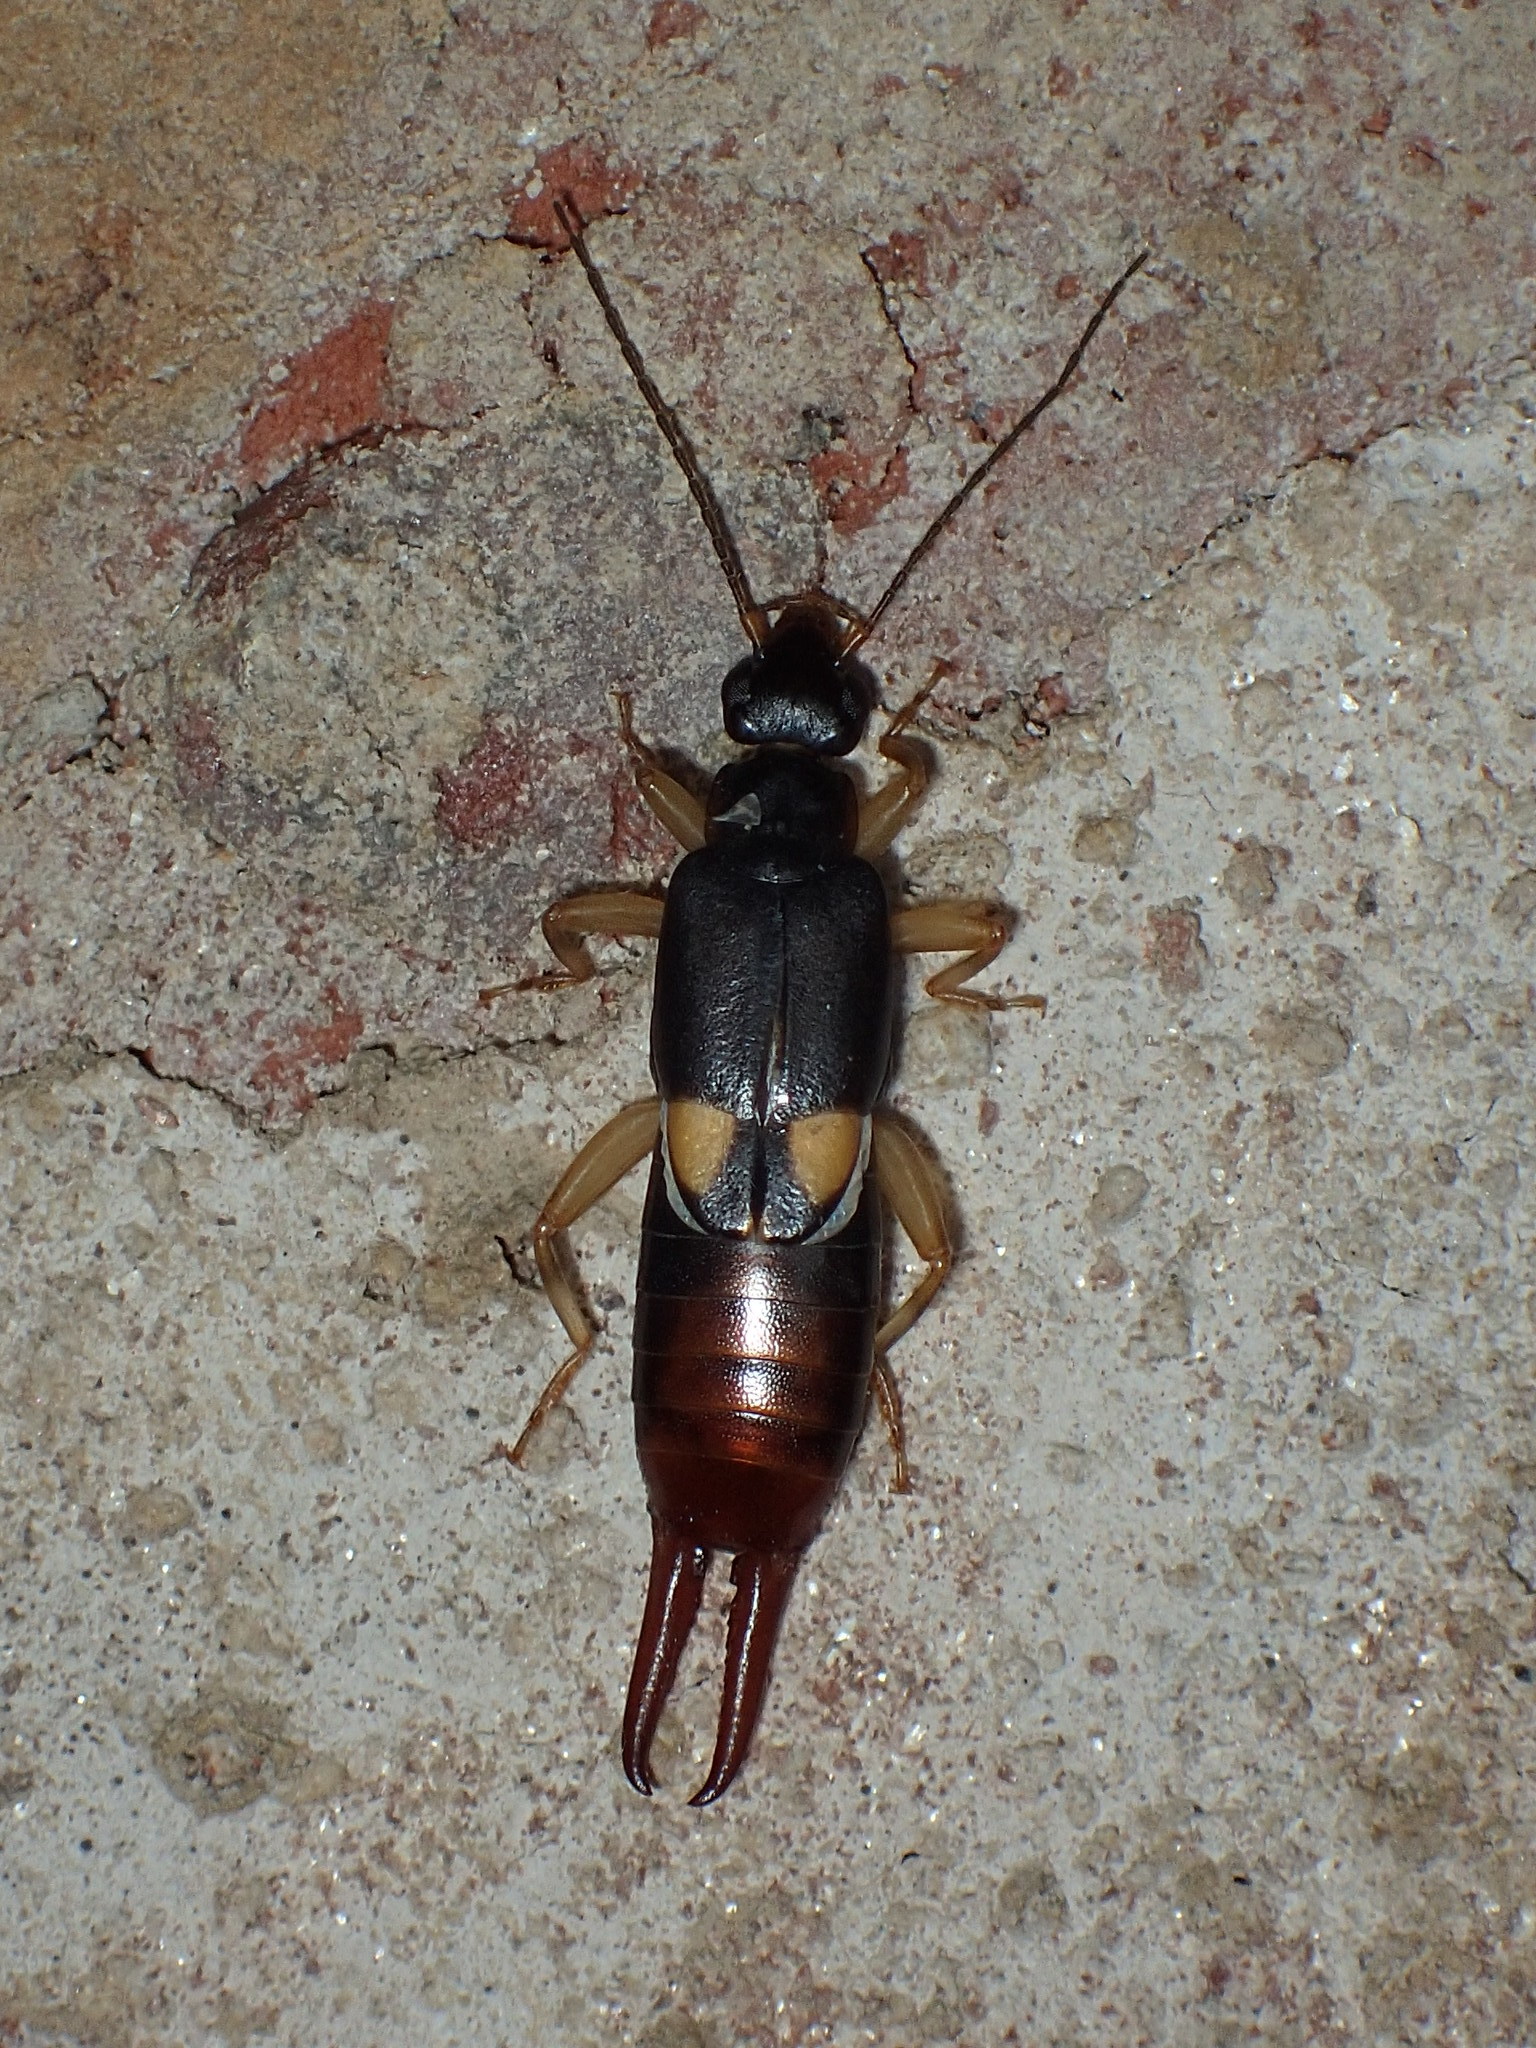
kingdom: Animalia
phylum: Arthropoda
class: Insecta
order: Dermaptera
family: Spongiphoridae
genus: Vostox
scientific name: Vostox brunneipennis
